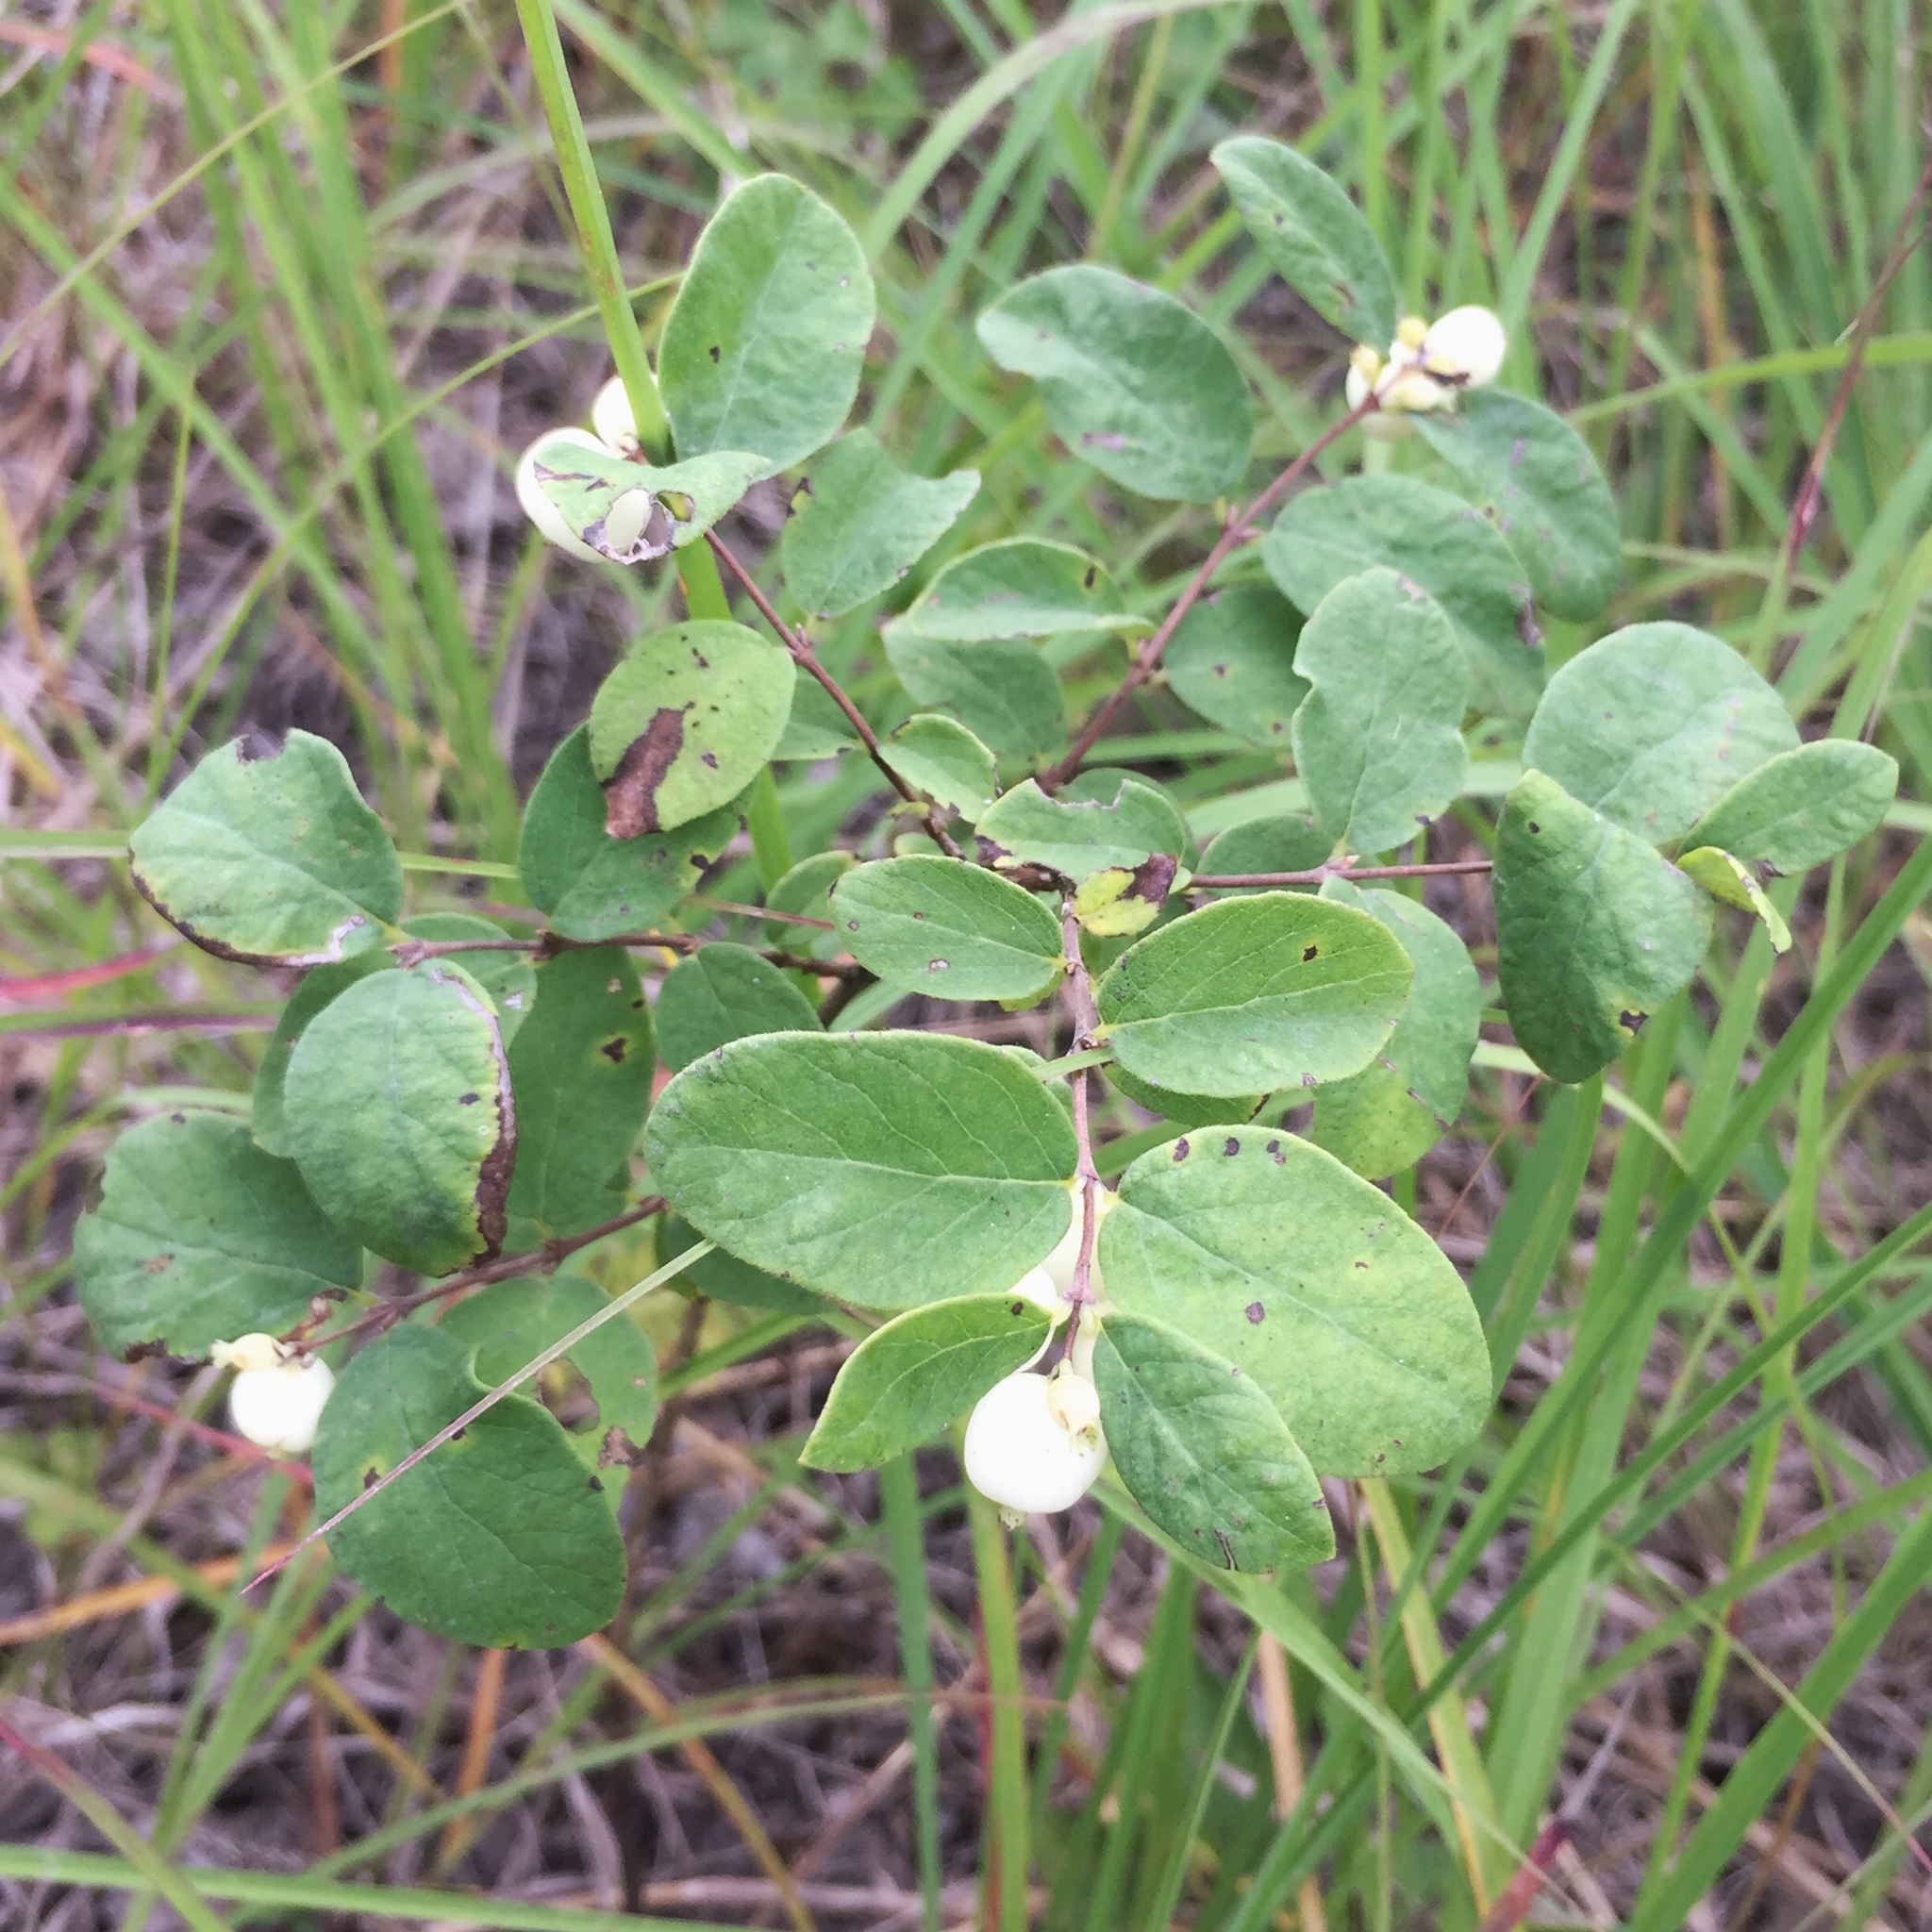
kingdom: Plantae
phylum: Tracheophyta
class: Magnoliopsida
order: Dipsacales
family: Caprifoliaceae
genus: Symphoricarpos
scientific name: Symphoricarpos occidentalis
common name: Wolfberry
